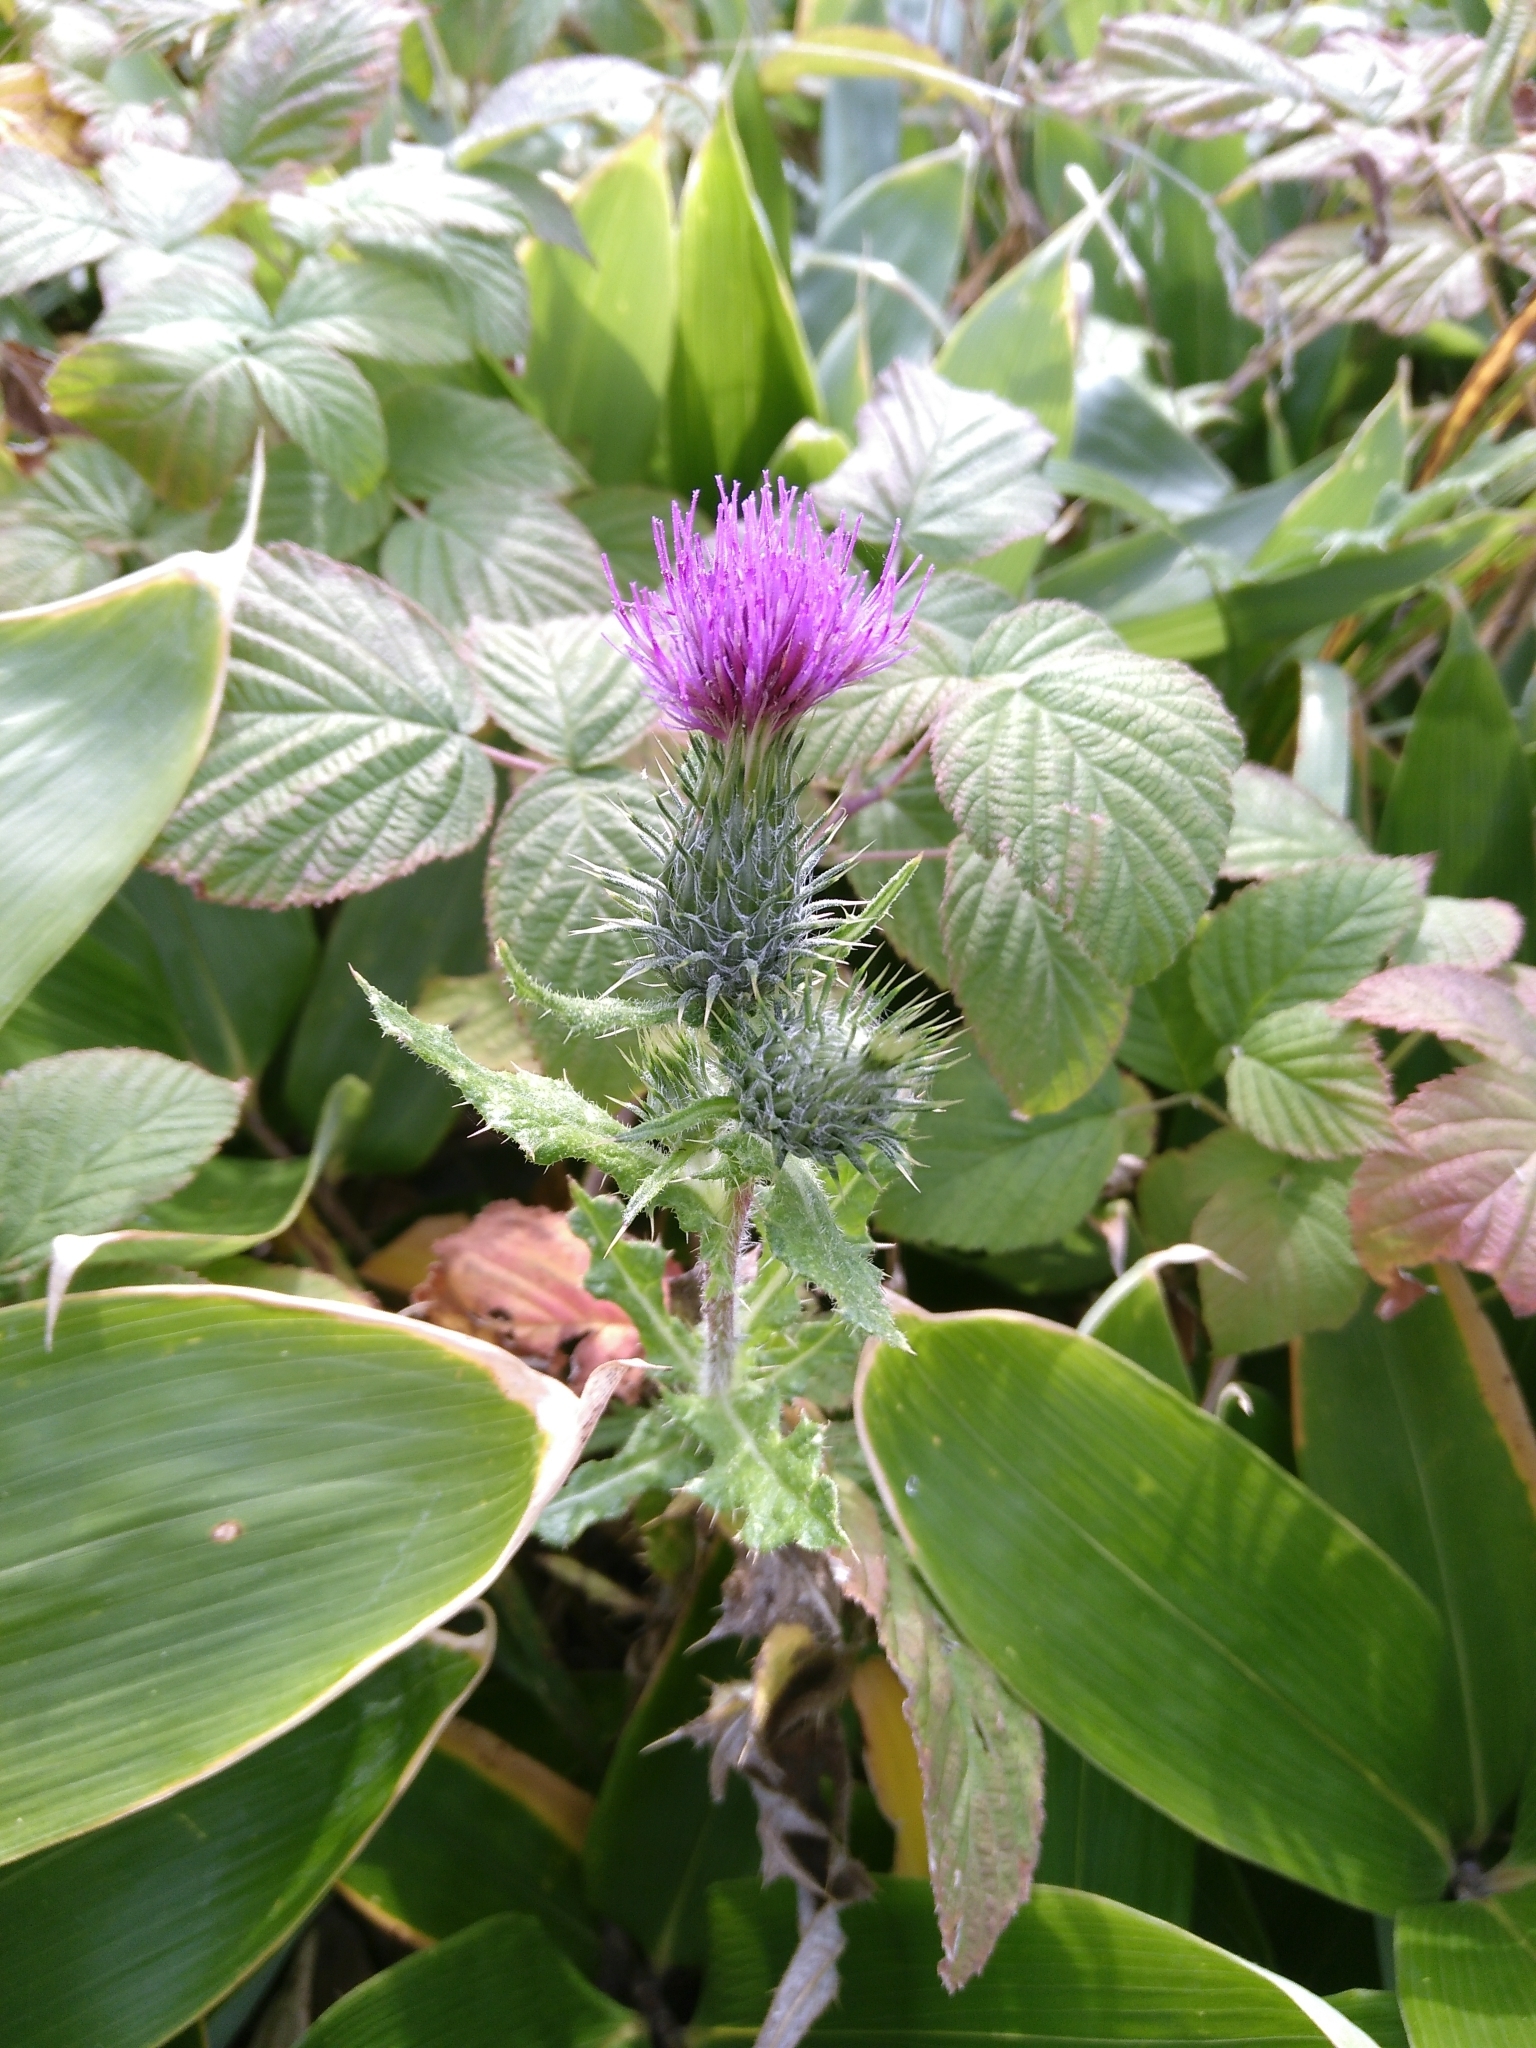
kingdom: Plantae
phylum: Tracheophyta
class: Magnoliopsida
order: Asterales
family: Asteraceae
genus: Cirsium
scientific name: Cirsium vulgare
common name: Bull thistle
